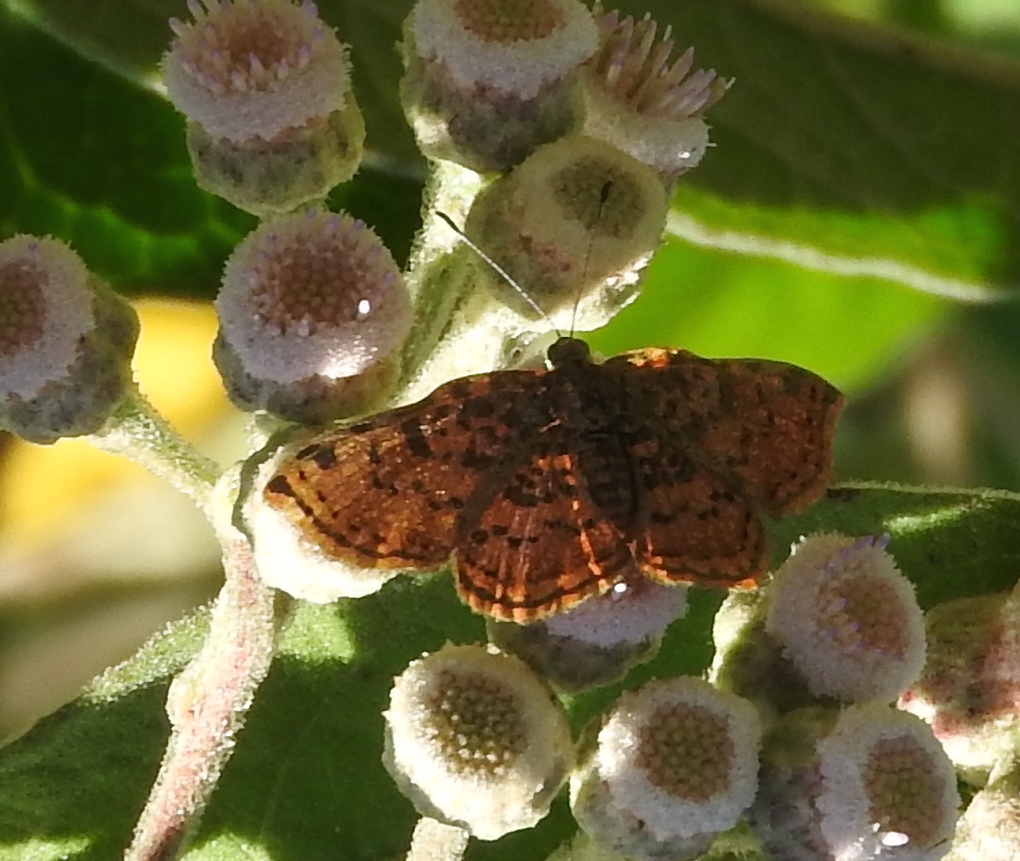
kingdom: Animalia
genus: Caria
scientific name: Caria ino
